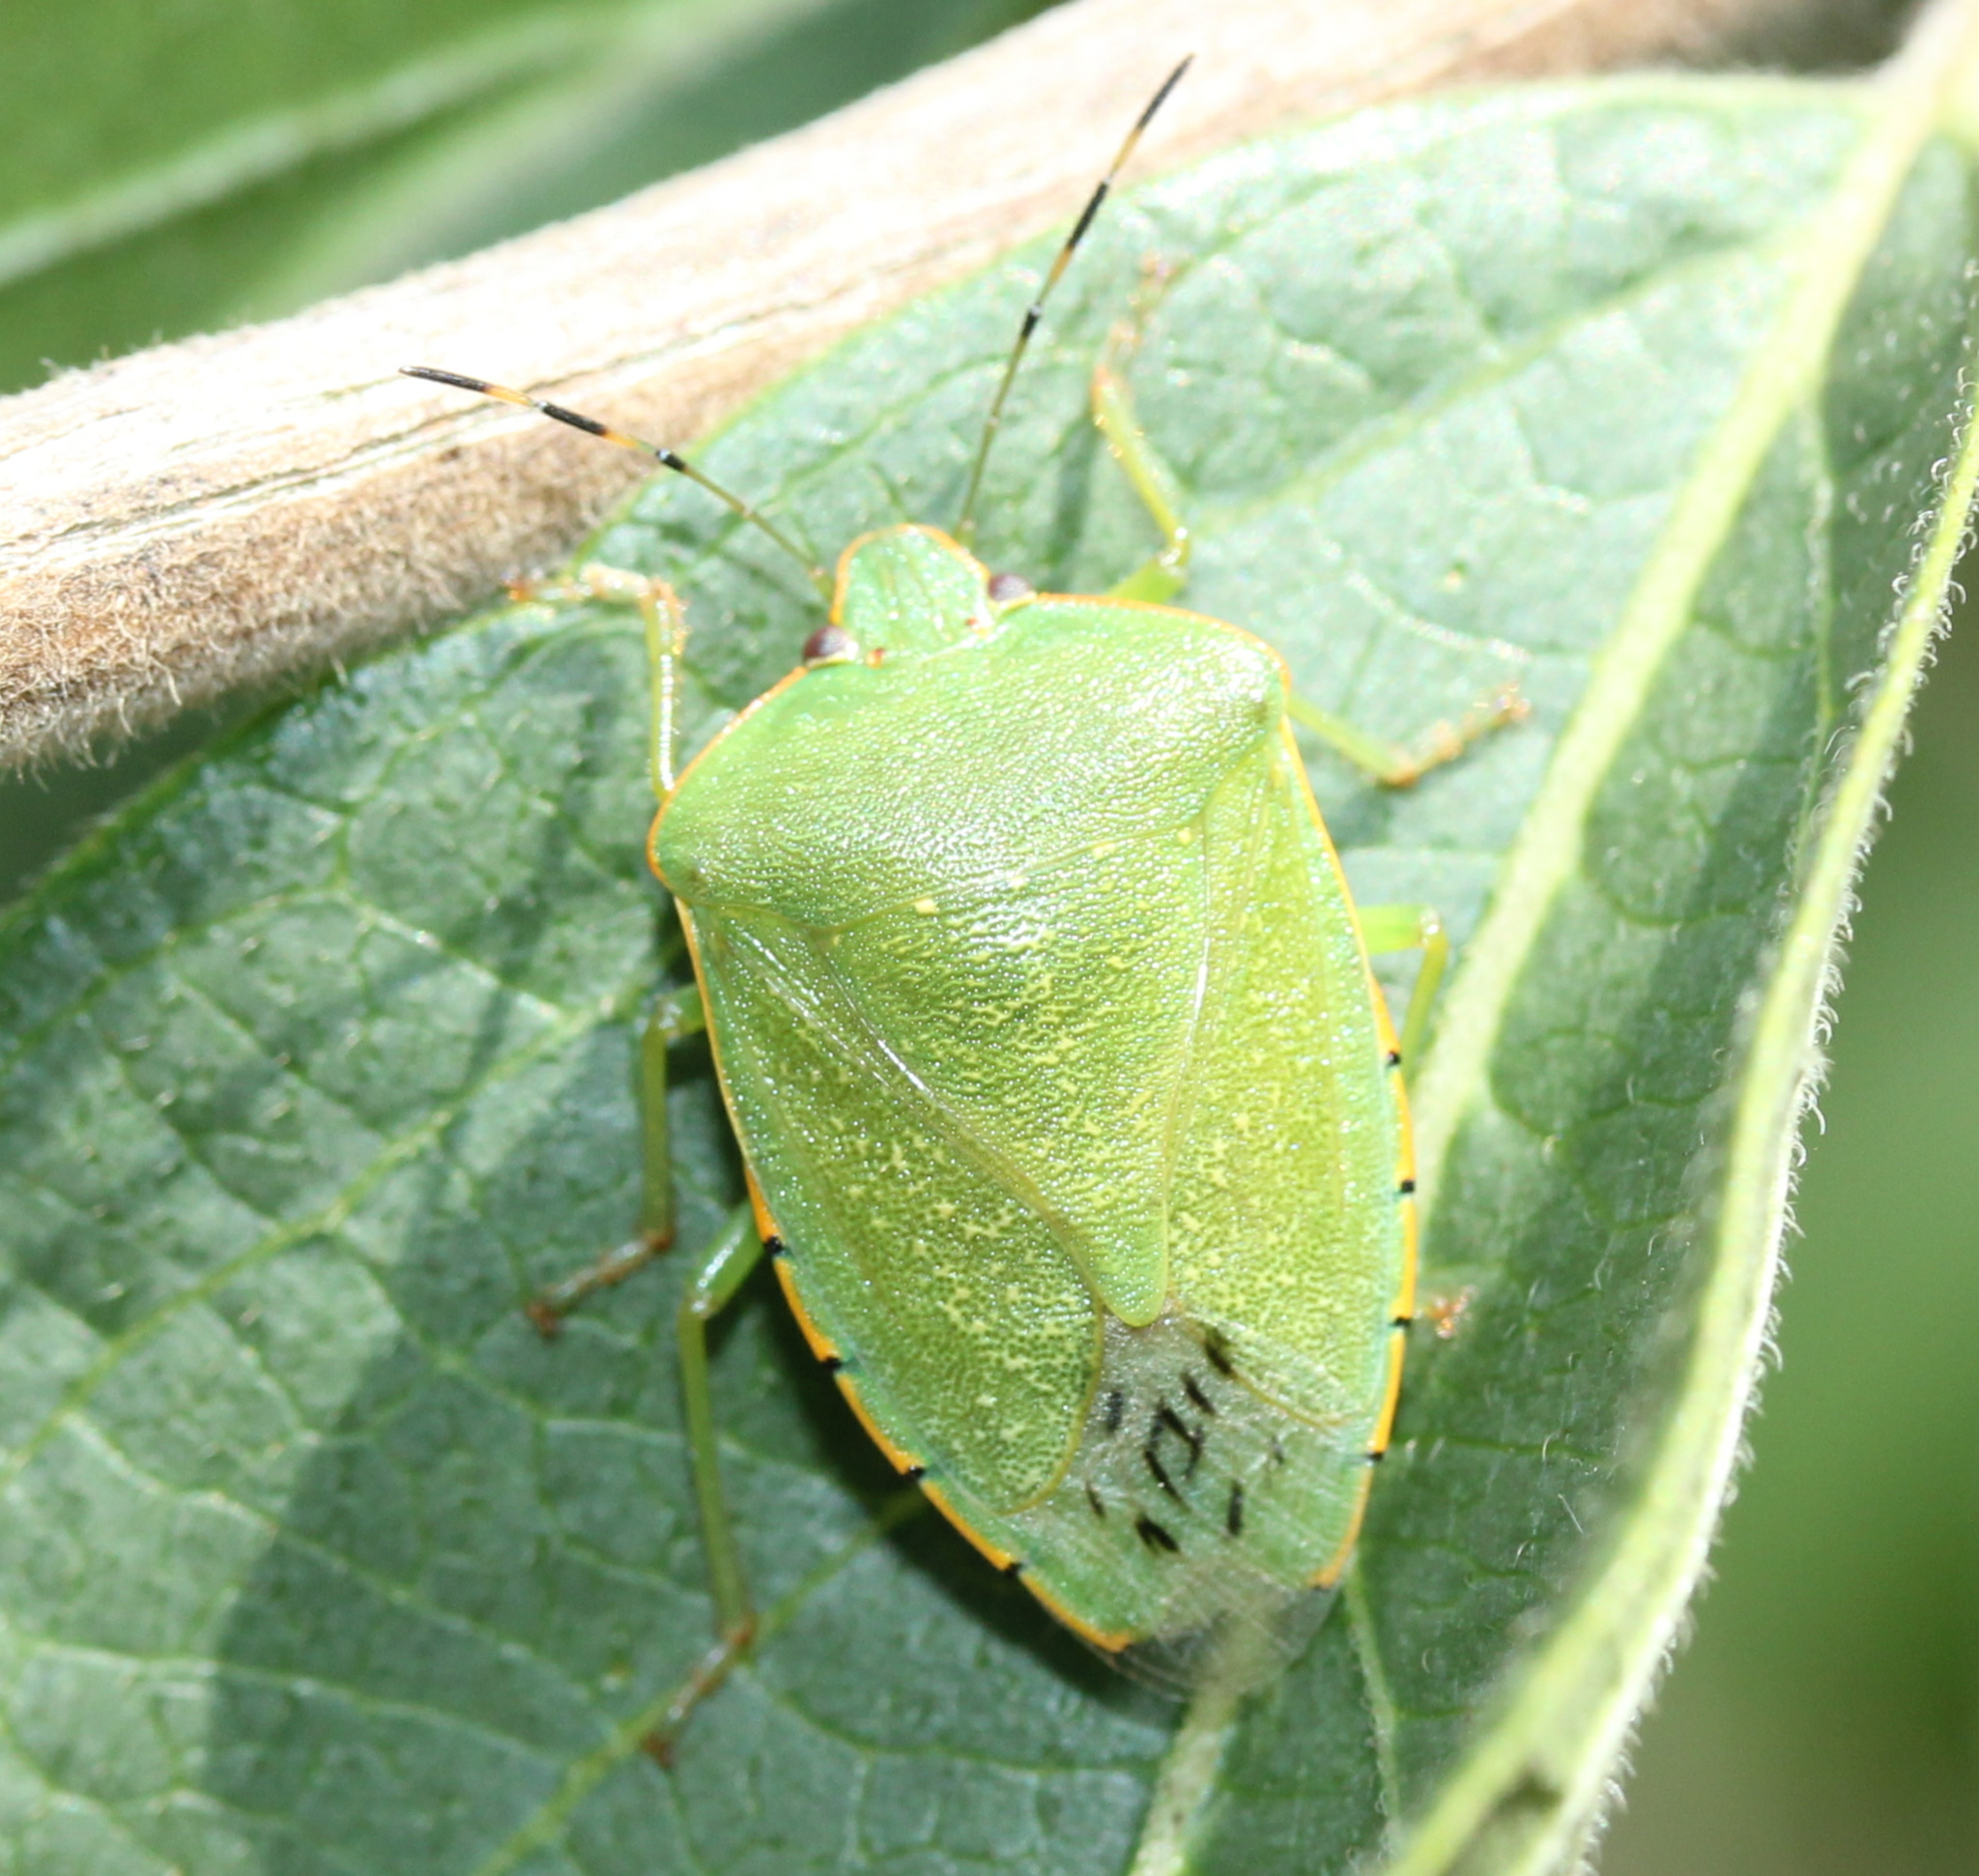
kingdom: Animalia
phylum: Arthropoda
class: Insecta
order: Hemiptera
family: Pentatomidae
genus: Chinavia
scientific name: Chinavia hilaris
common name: Green stink bug
